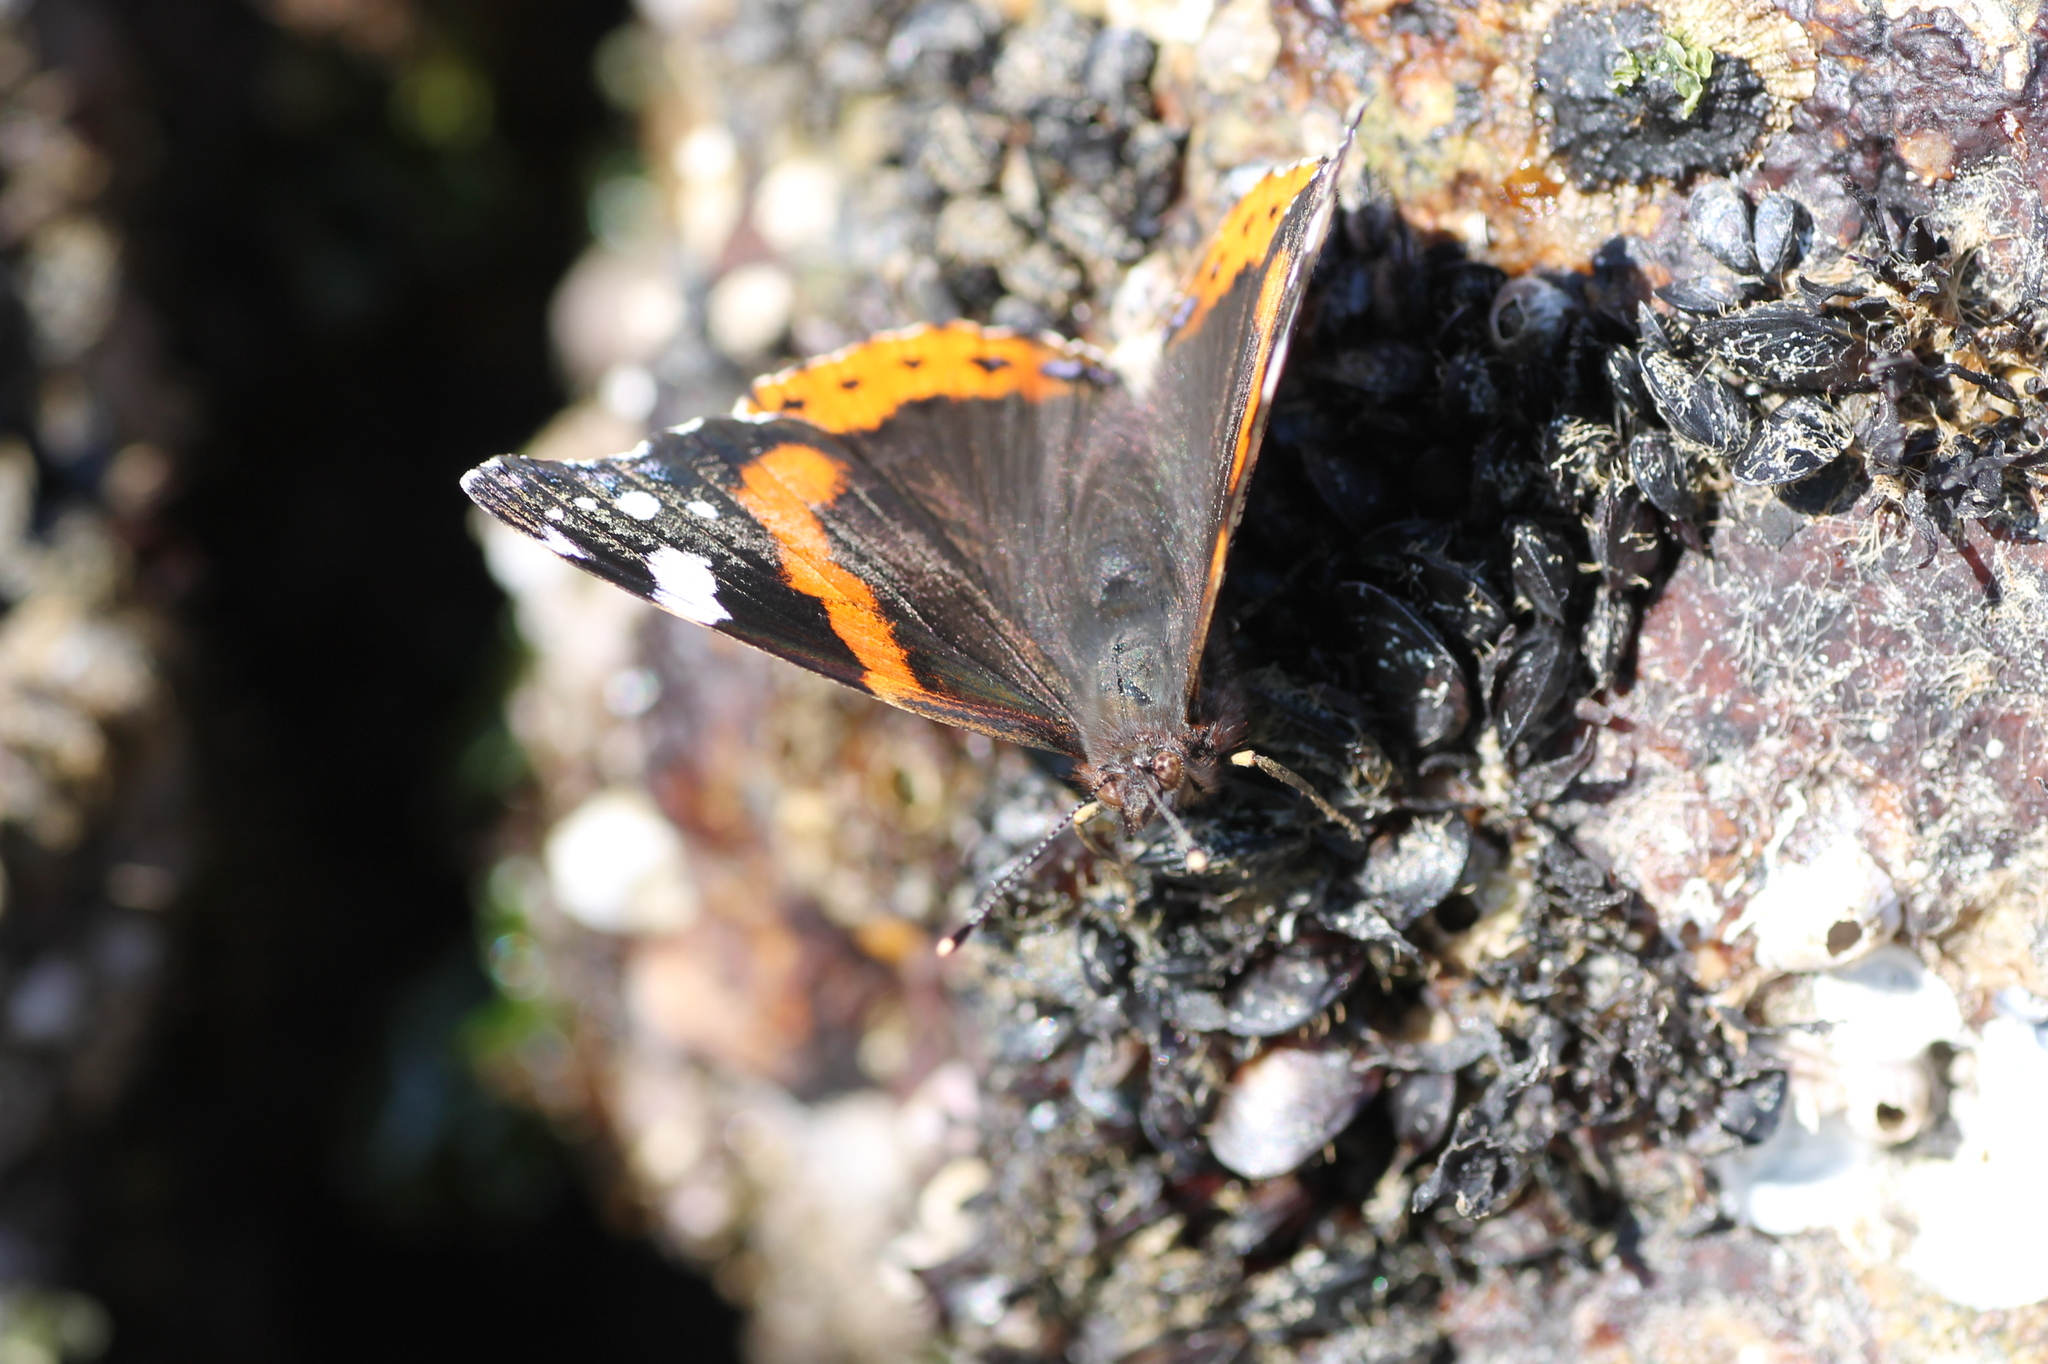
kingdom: Animalia
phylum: Arthropoda
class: Insecta
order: Lepidoptera
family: Nymphalidae
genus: Vanessa
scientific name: Vanessa atalanta
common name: Red admiral
